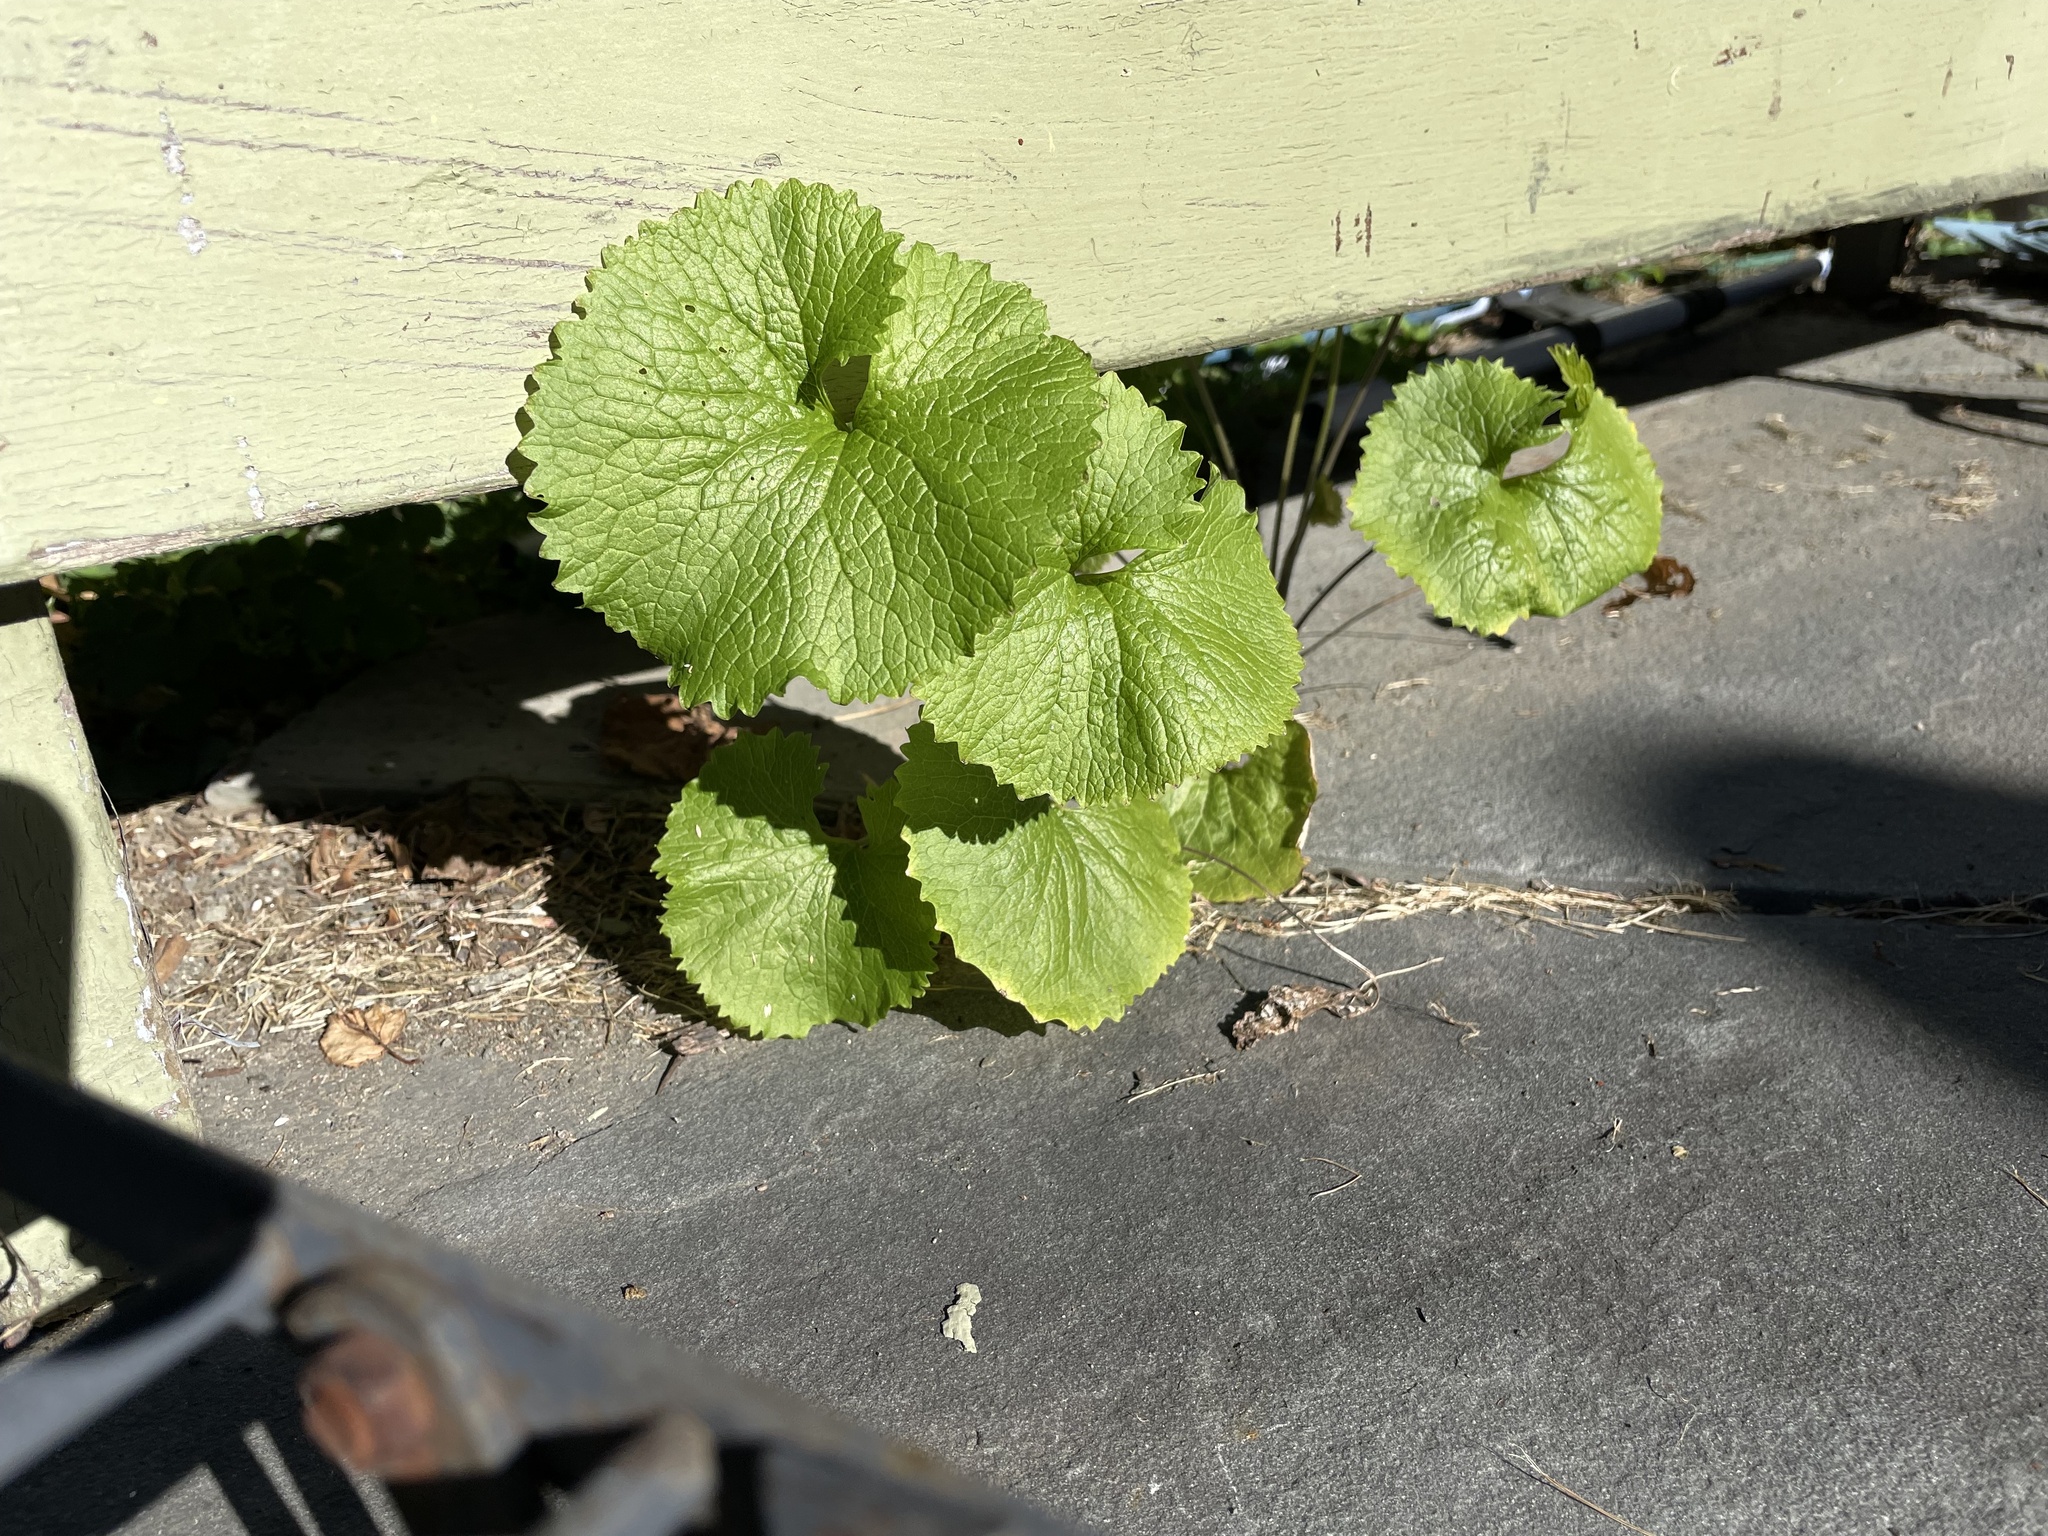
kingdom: Plantae
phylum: Tracheophyta
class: Magnoliopsida
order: Brassicales
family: Brassicaceae
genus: Alliaria
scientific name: Alliaria petiolata
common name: Garlic mustard
